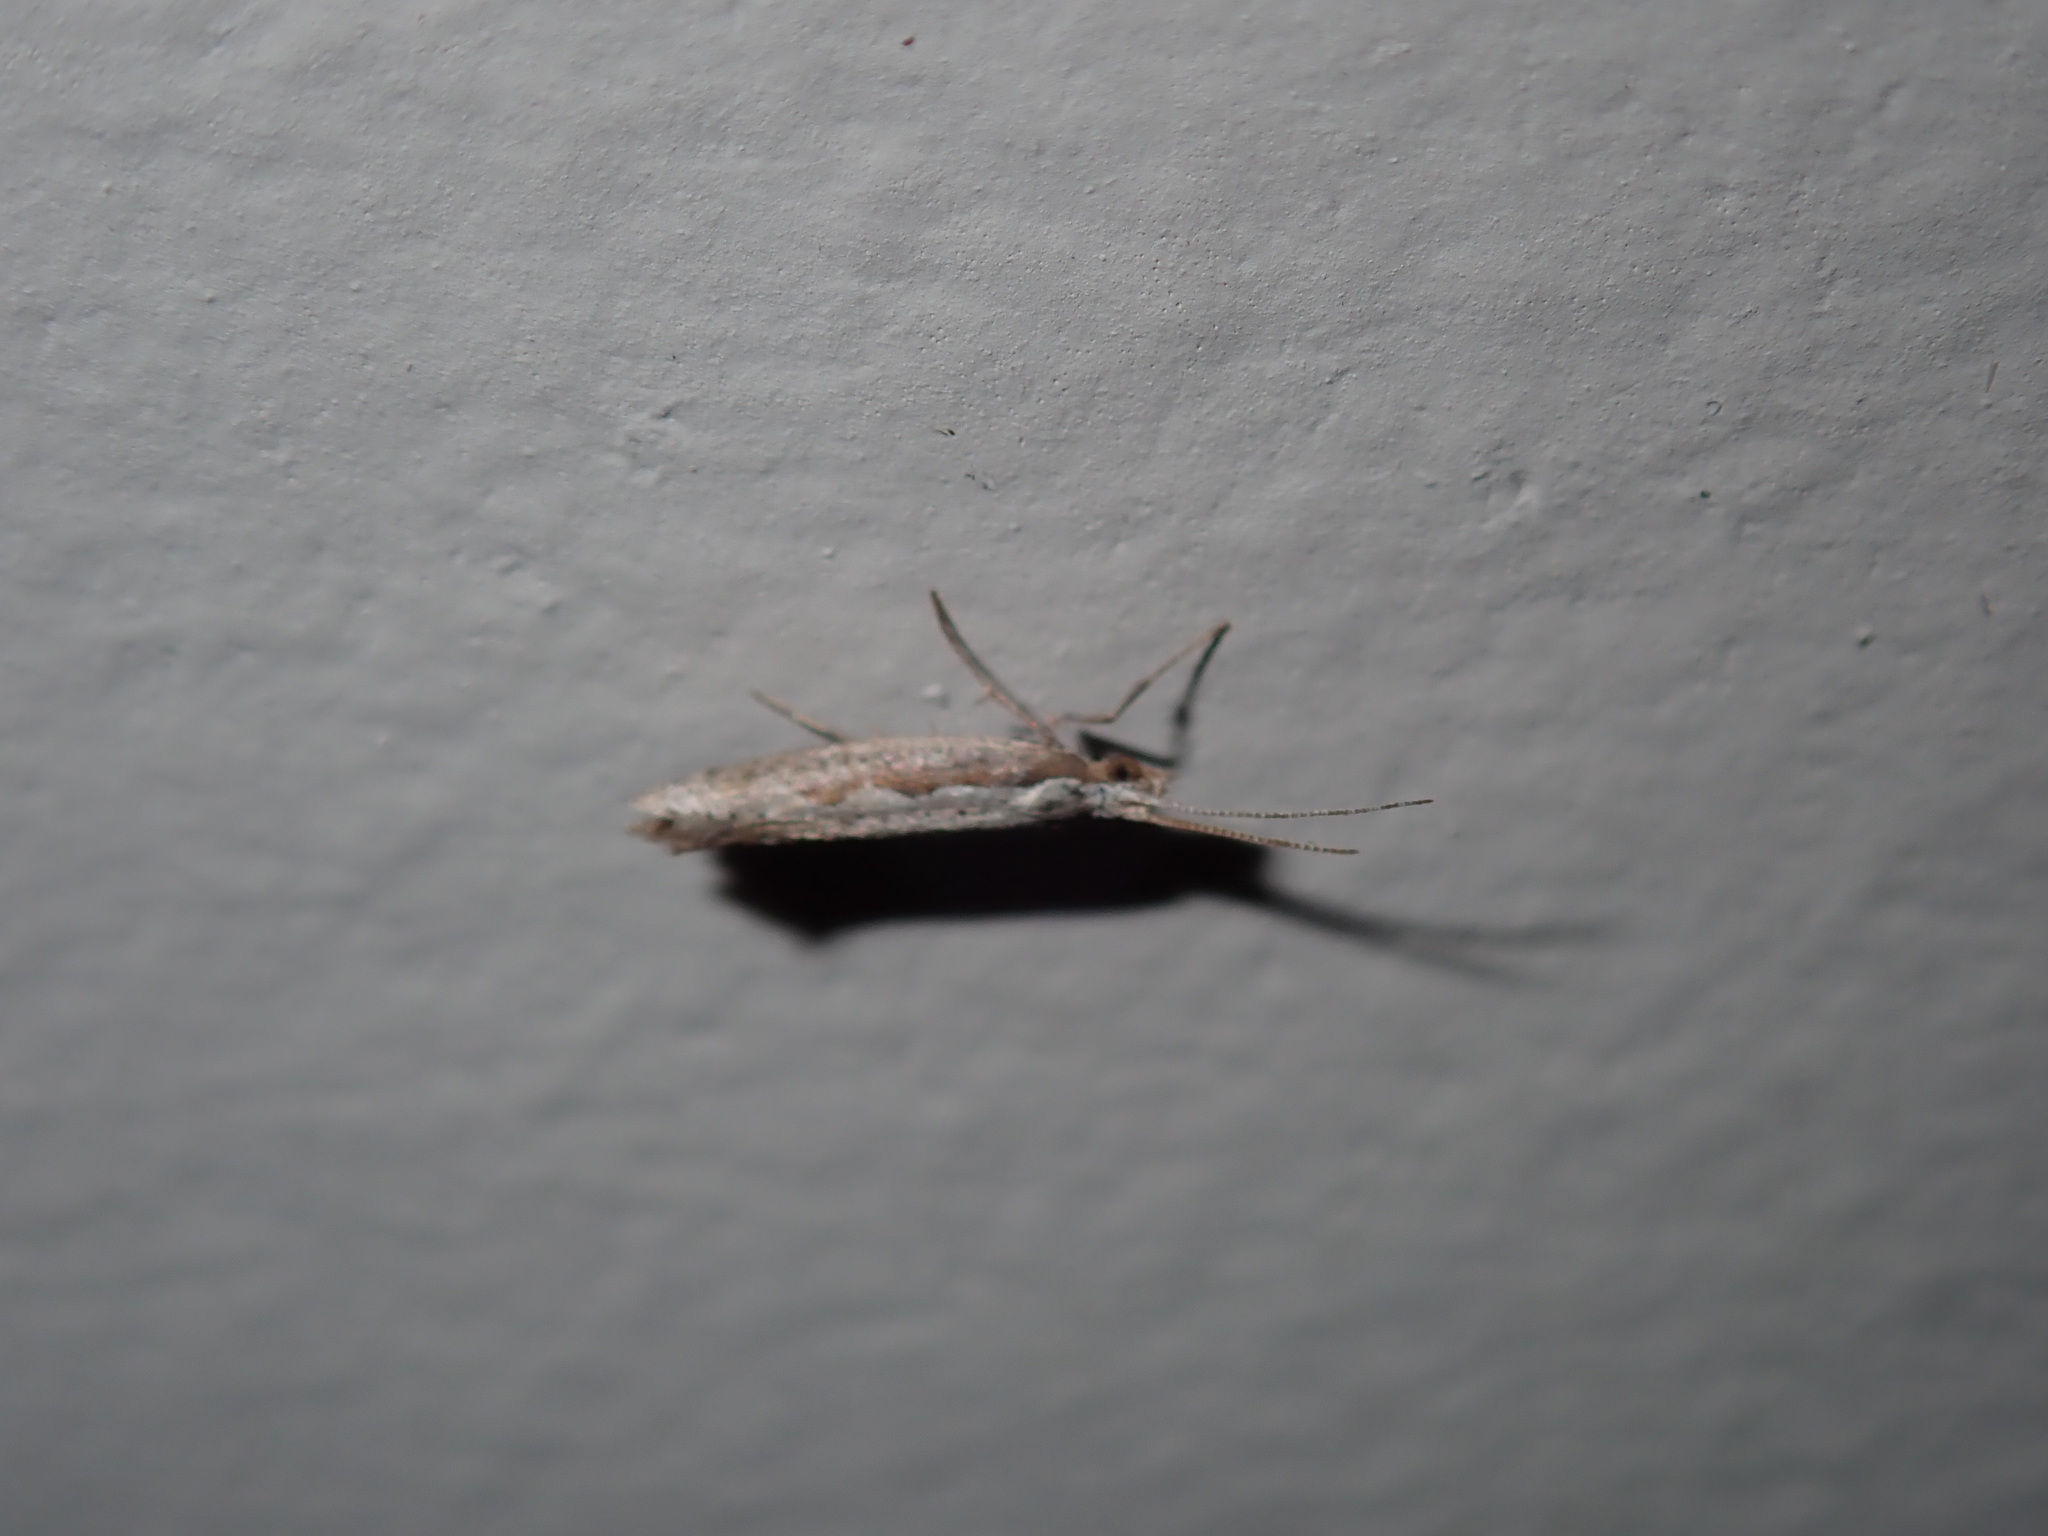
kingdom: Animalia
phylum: Arthropoda
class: Insecta
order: Lepidoptera
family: Plutellidae
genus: Plutella
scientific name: Plutella
